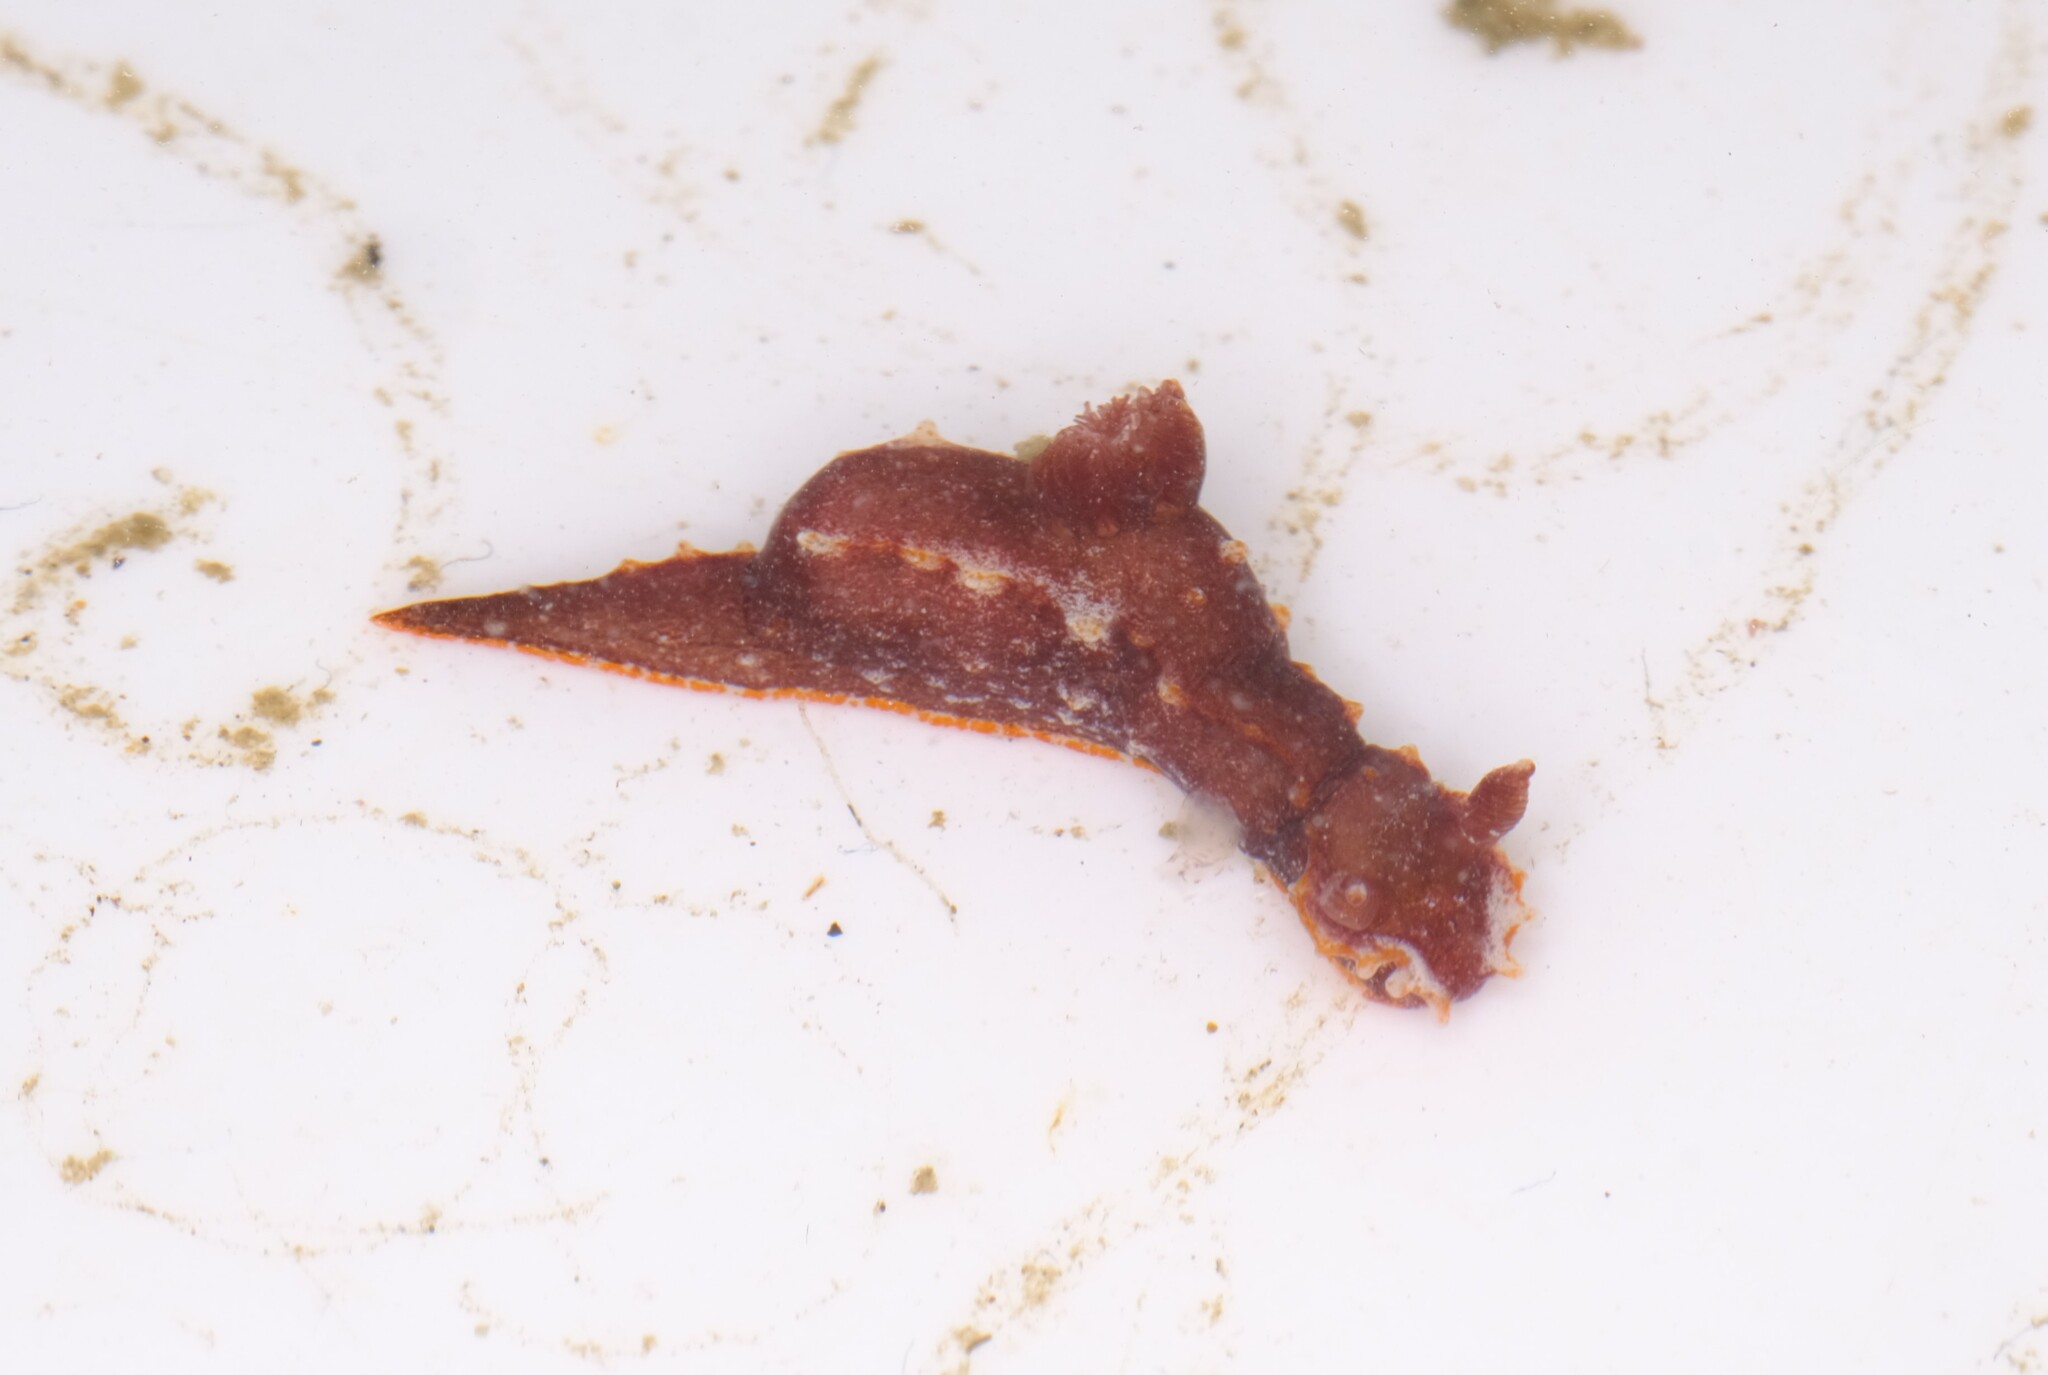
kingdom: Animalia
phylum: Mollusca
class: Gastropoda
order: Nudibranchia
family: Polyceridae
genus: Polycera
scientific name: Polycera parvula
